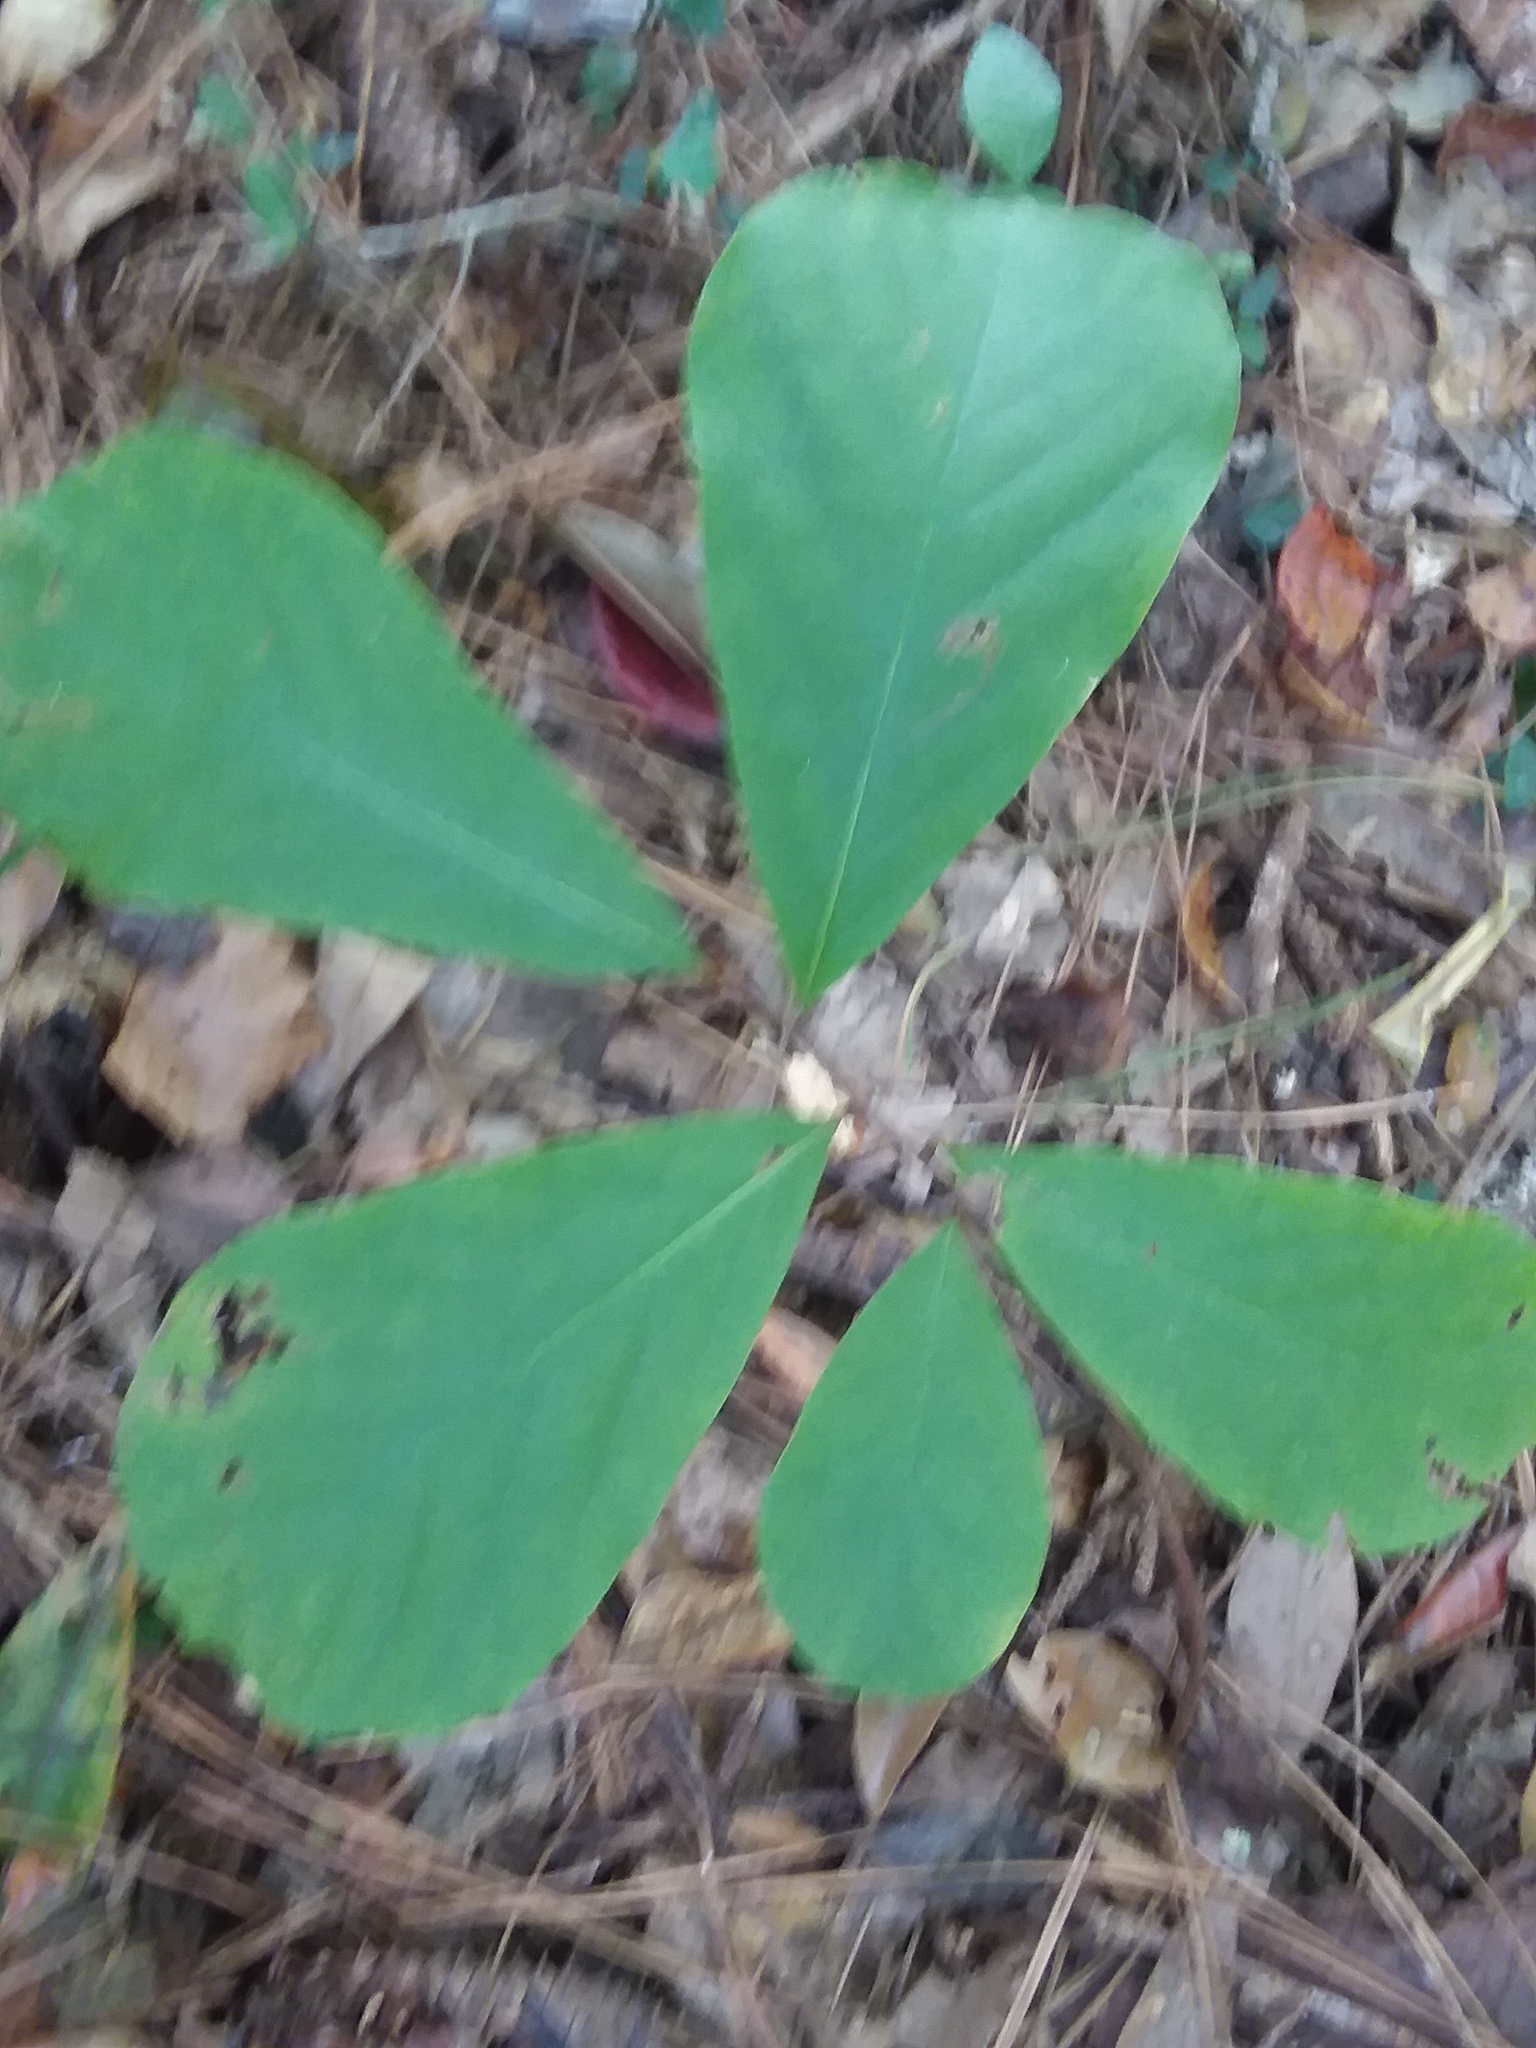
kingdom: Plantae
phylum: Tracheophyta
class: Magnoliopsida
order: Magnoliales
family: Annonaceae
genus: Asimina
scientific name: Asimina parviflora
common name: Dwarf pawpaw
